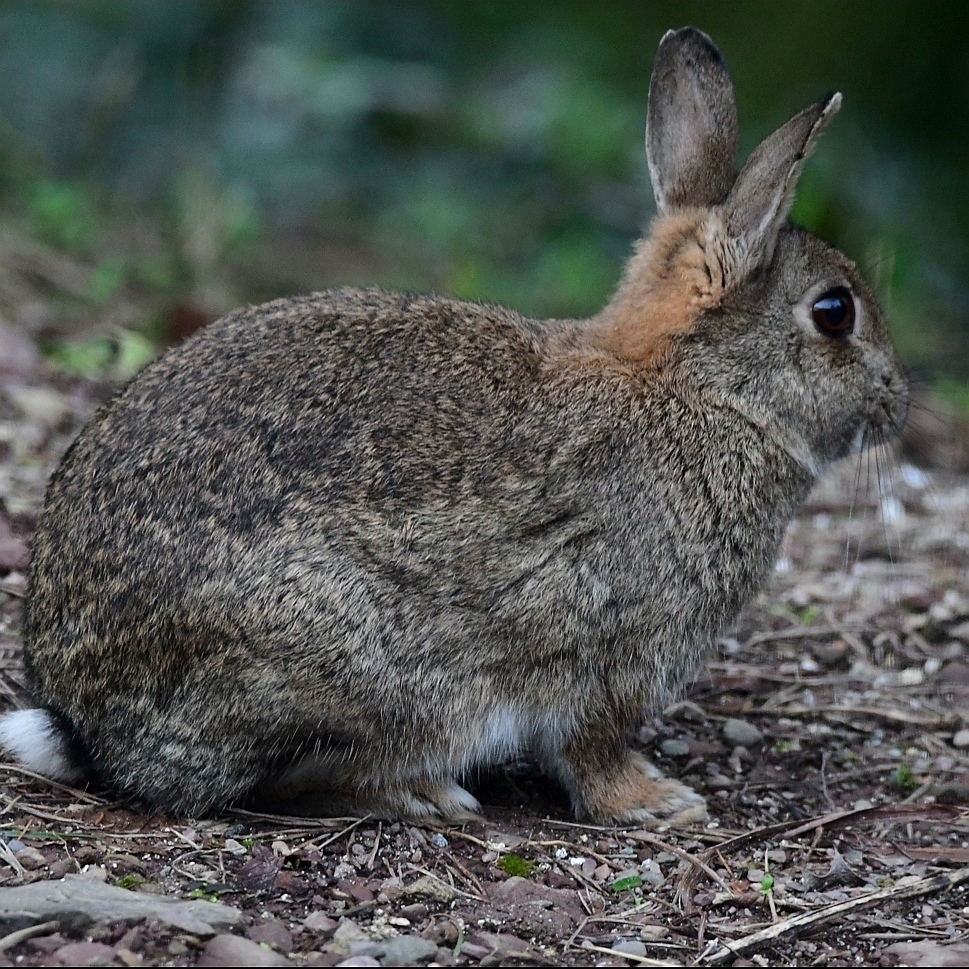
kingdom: Animalia
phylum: Chordata
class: Mammalia
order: Lagomorpha
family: Leporidae
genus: Oryctolagus
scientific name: Oryctolagus cuniculus
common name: European rabbit
